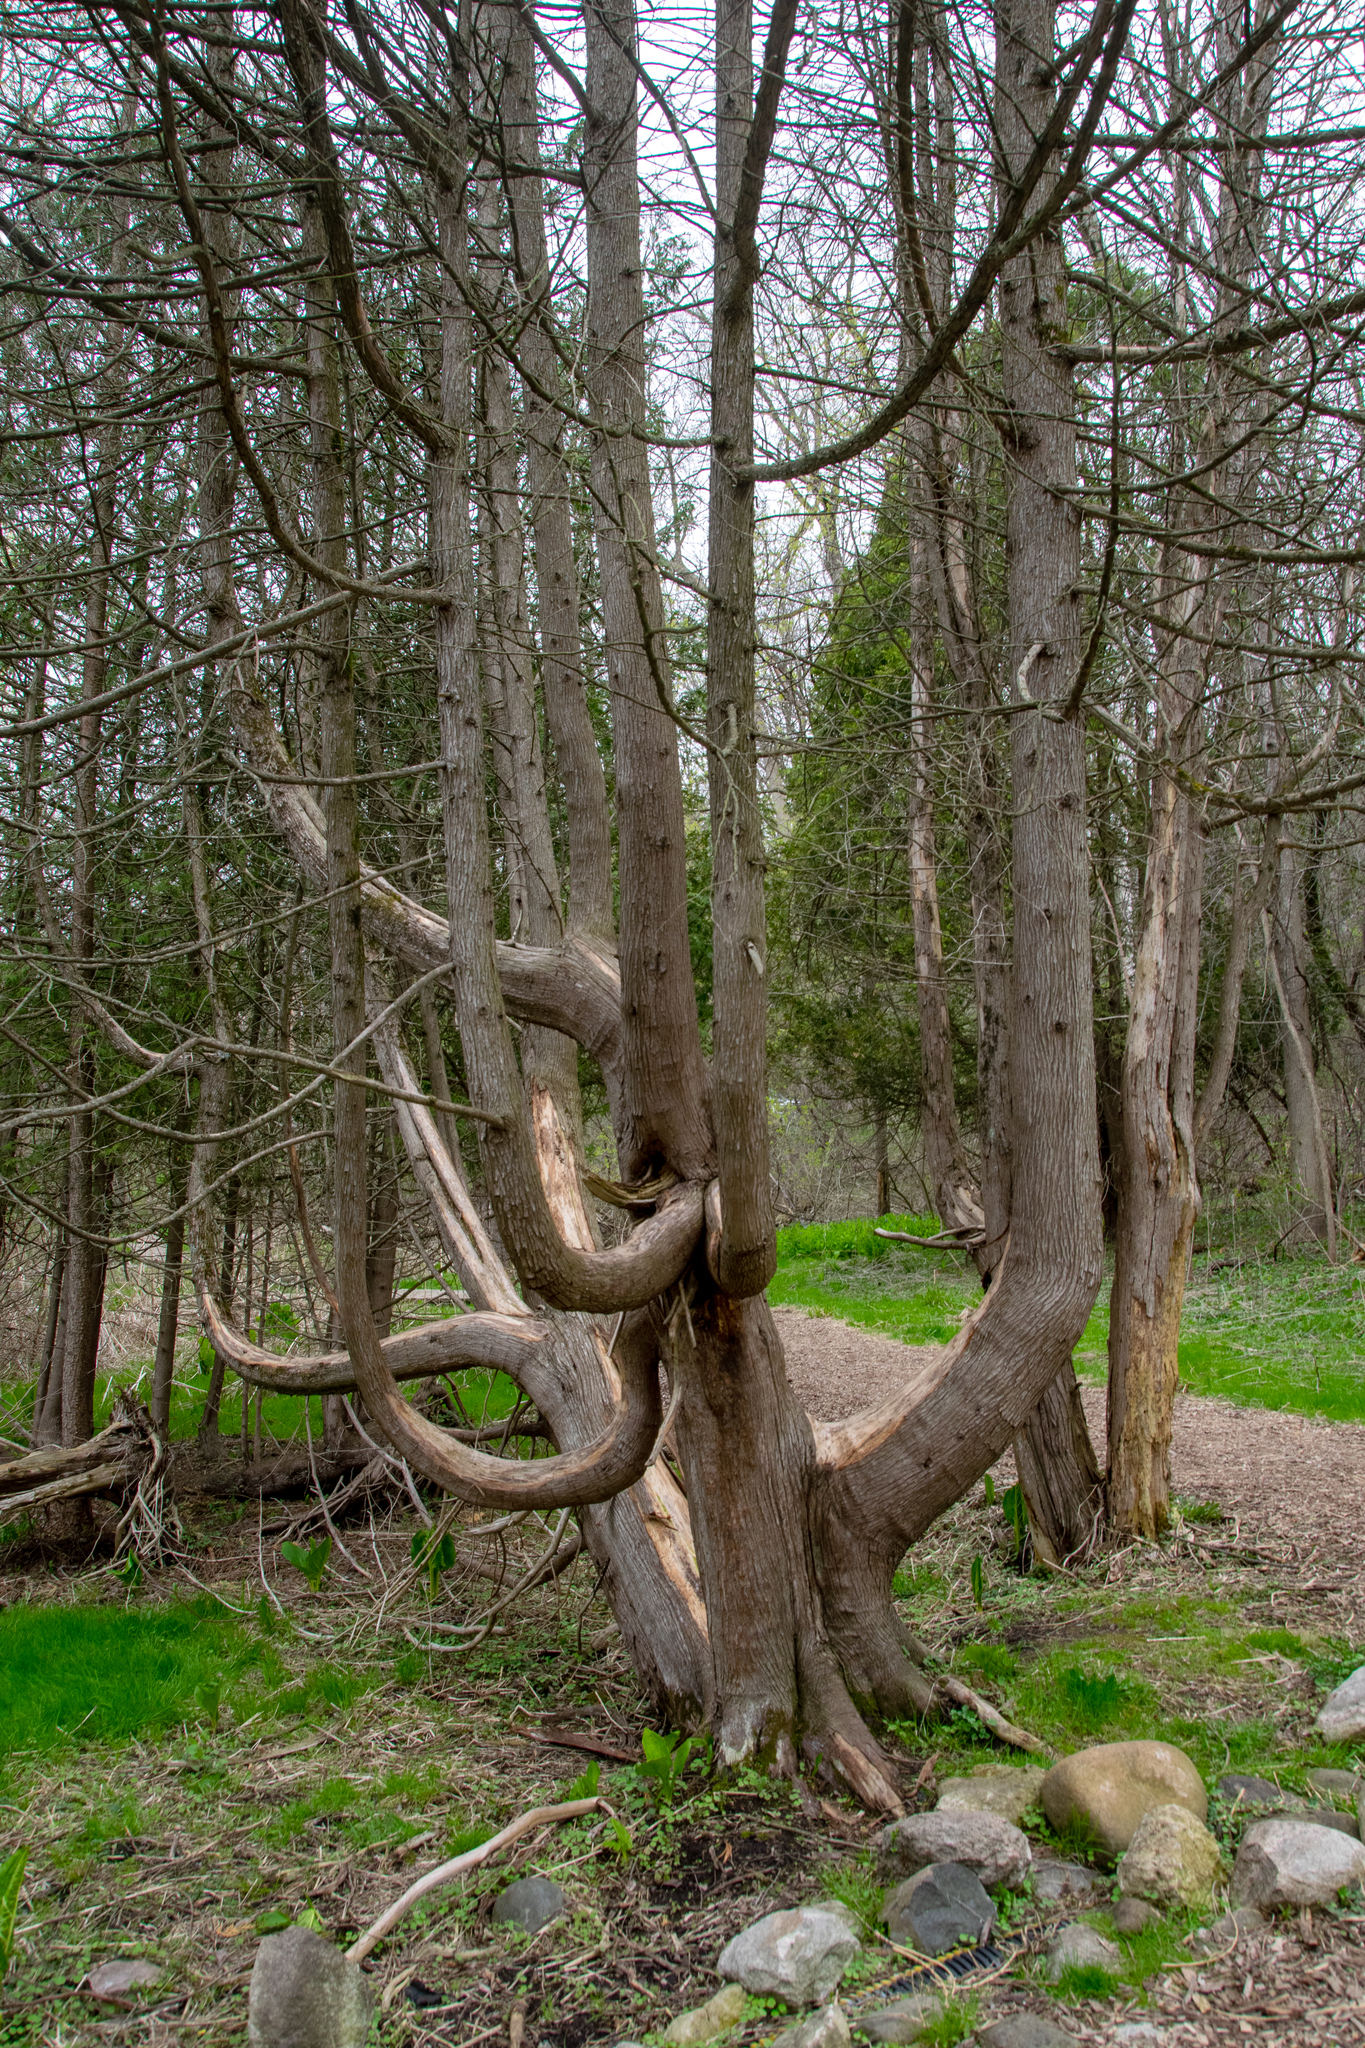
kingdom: Plantae
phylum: Tracheophyta
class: Pinopsida
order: Pinales
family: Cupressaceae
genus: Thuja
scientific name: Thuja occidentalis
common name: Northern white-cedar
